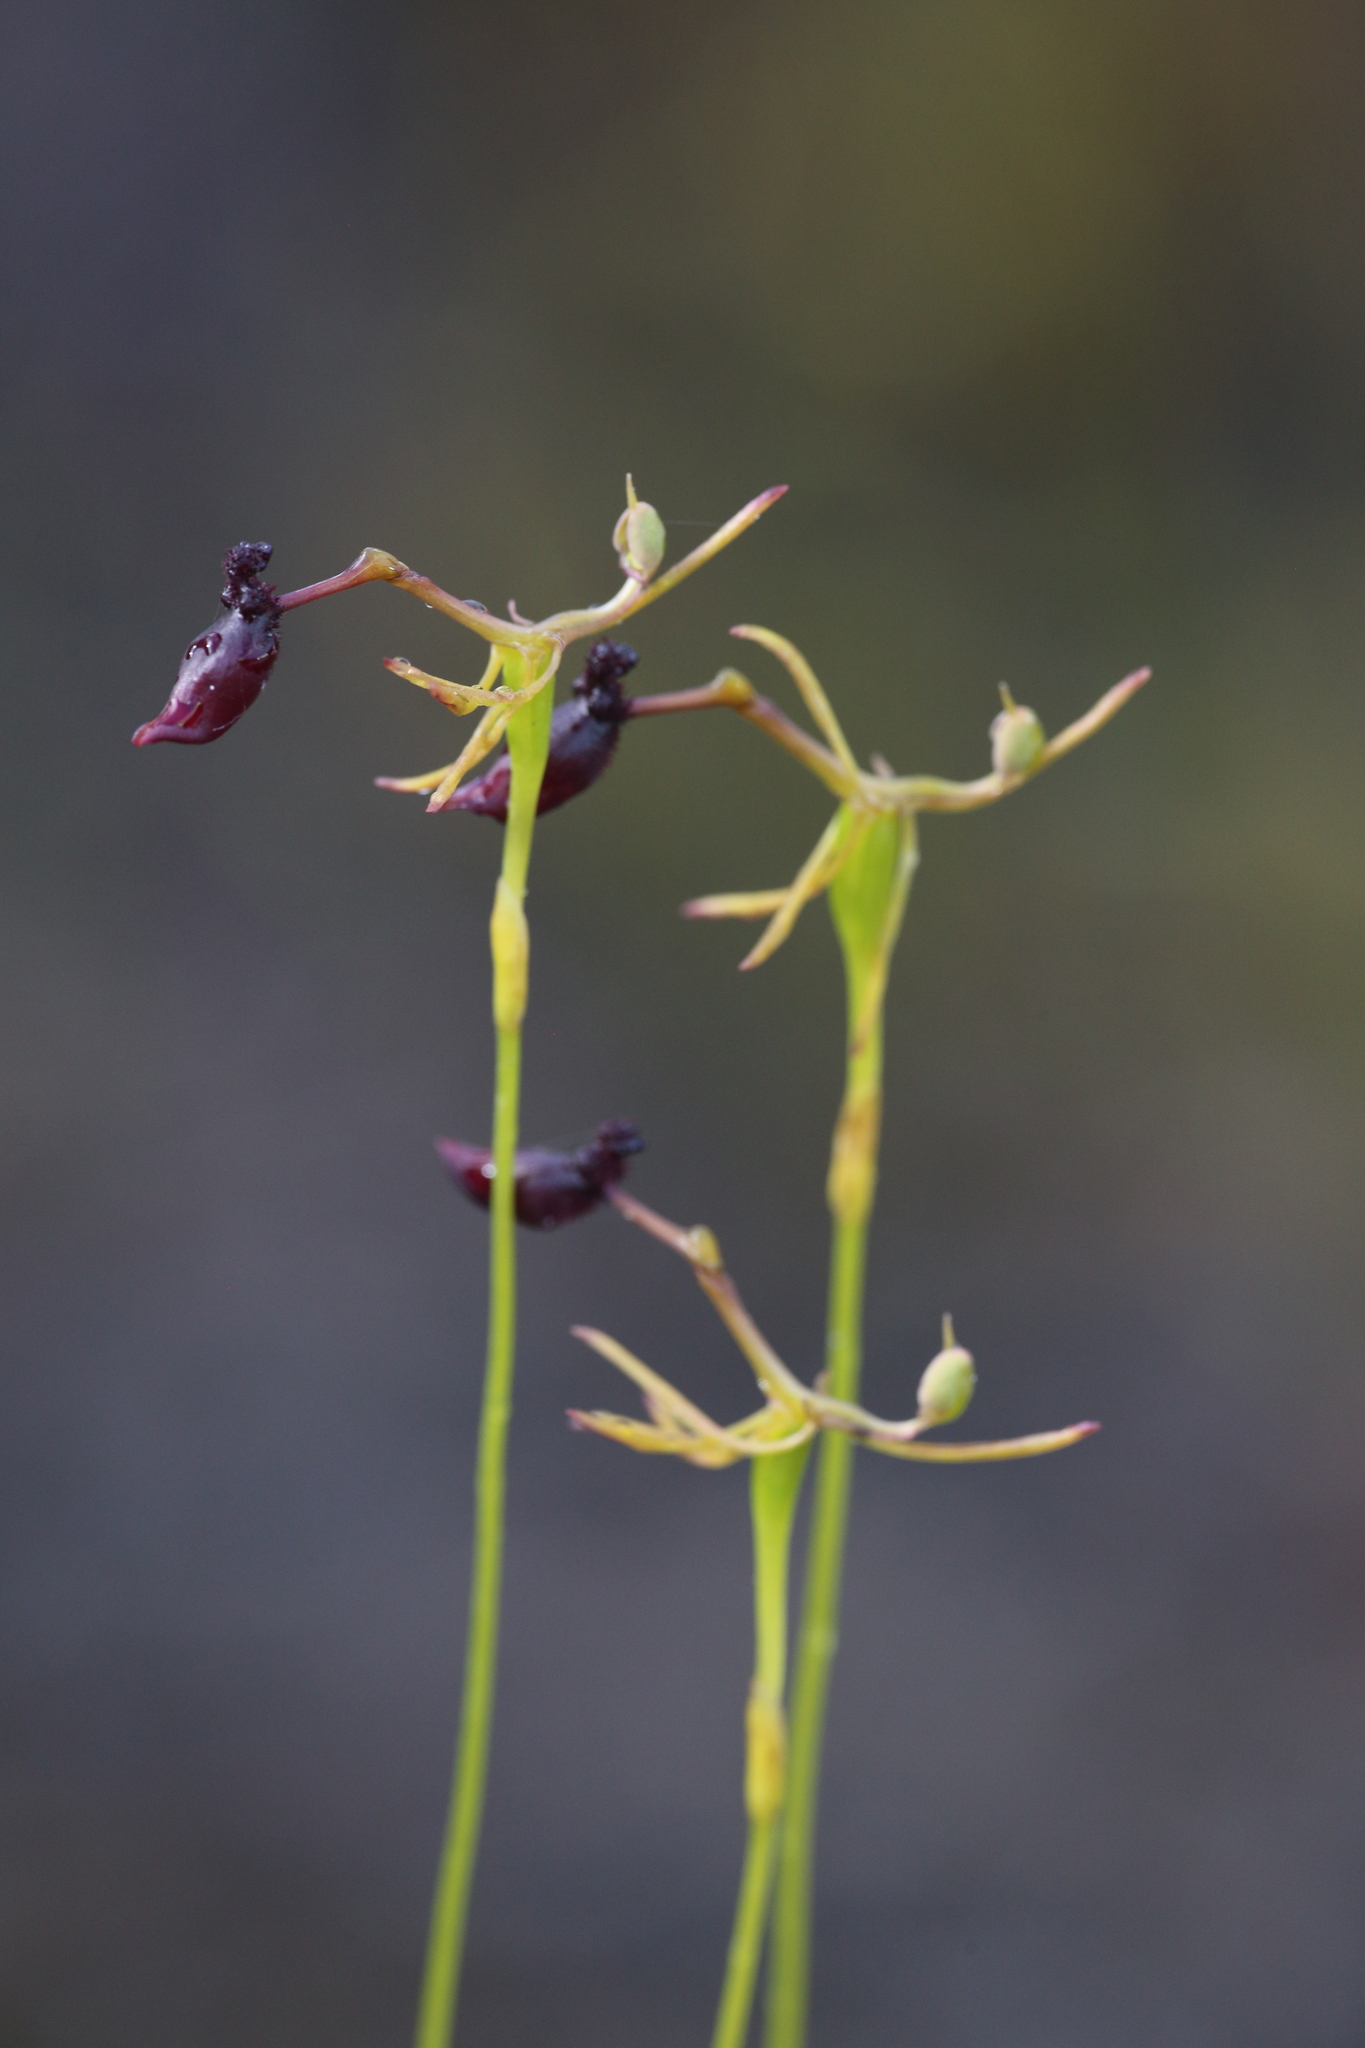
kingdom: Plantae
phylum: Tracheophyta
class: Liliopsida
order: Asparagales
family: Orchidaceae
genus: Drakaea
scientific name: Drakaea thynniphila
